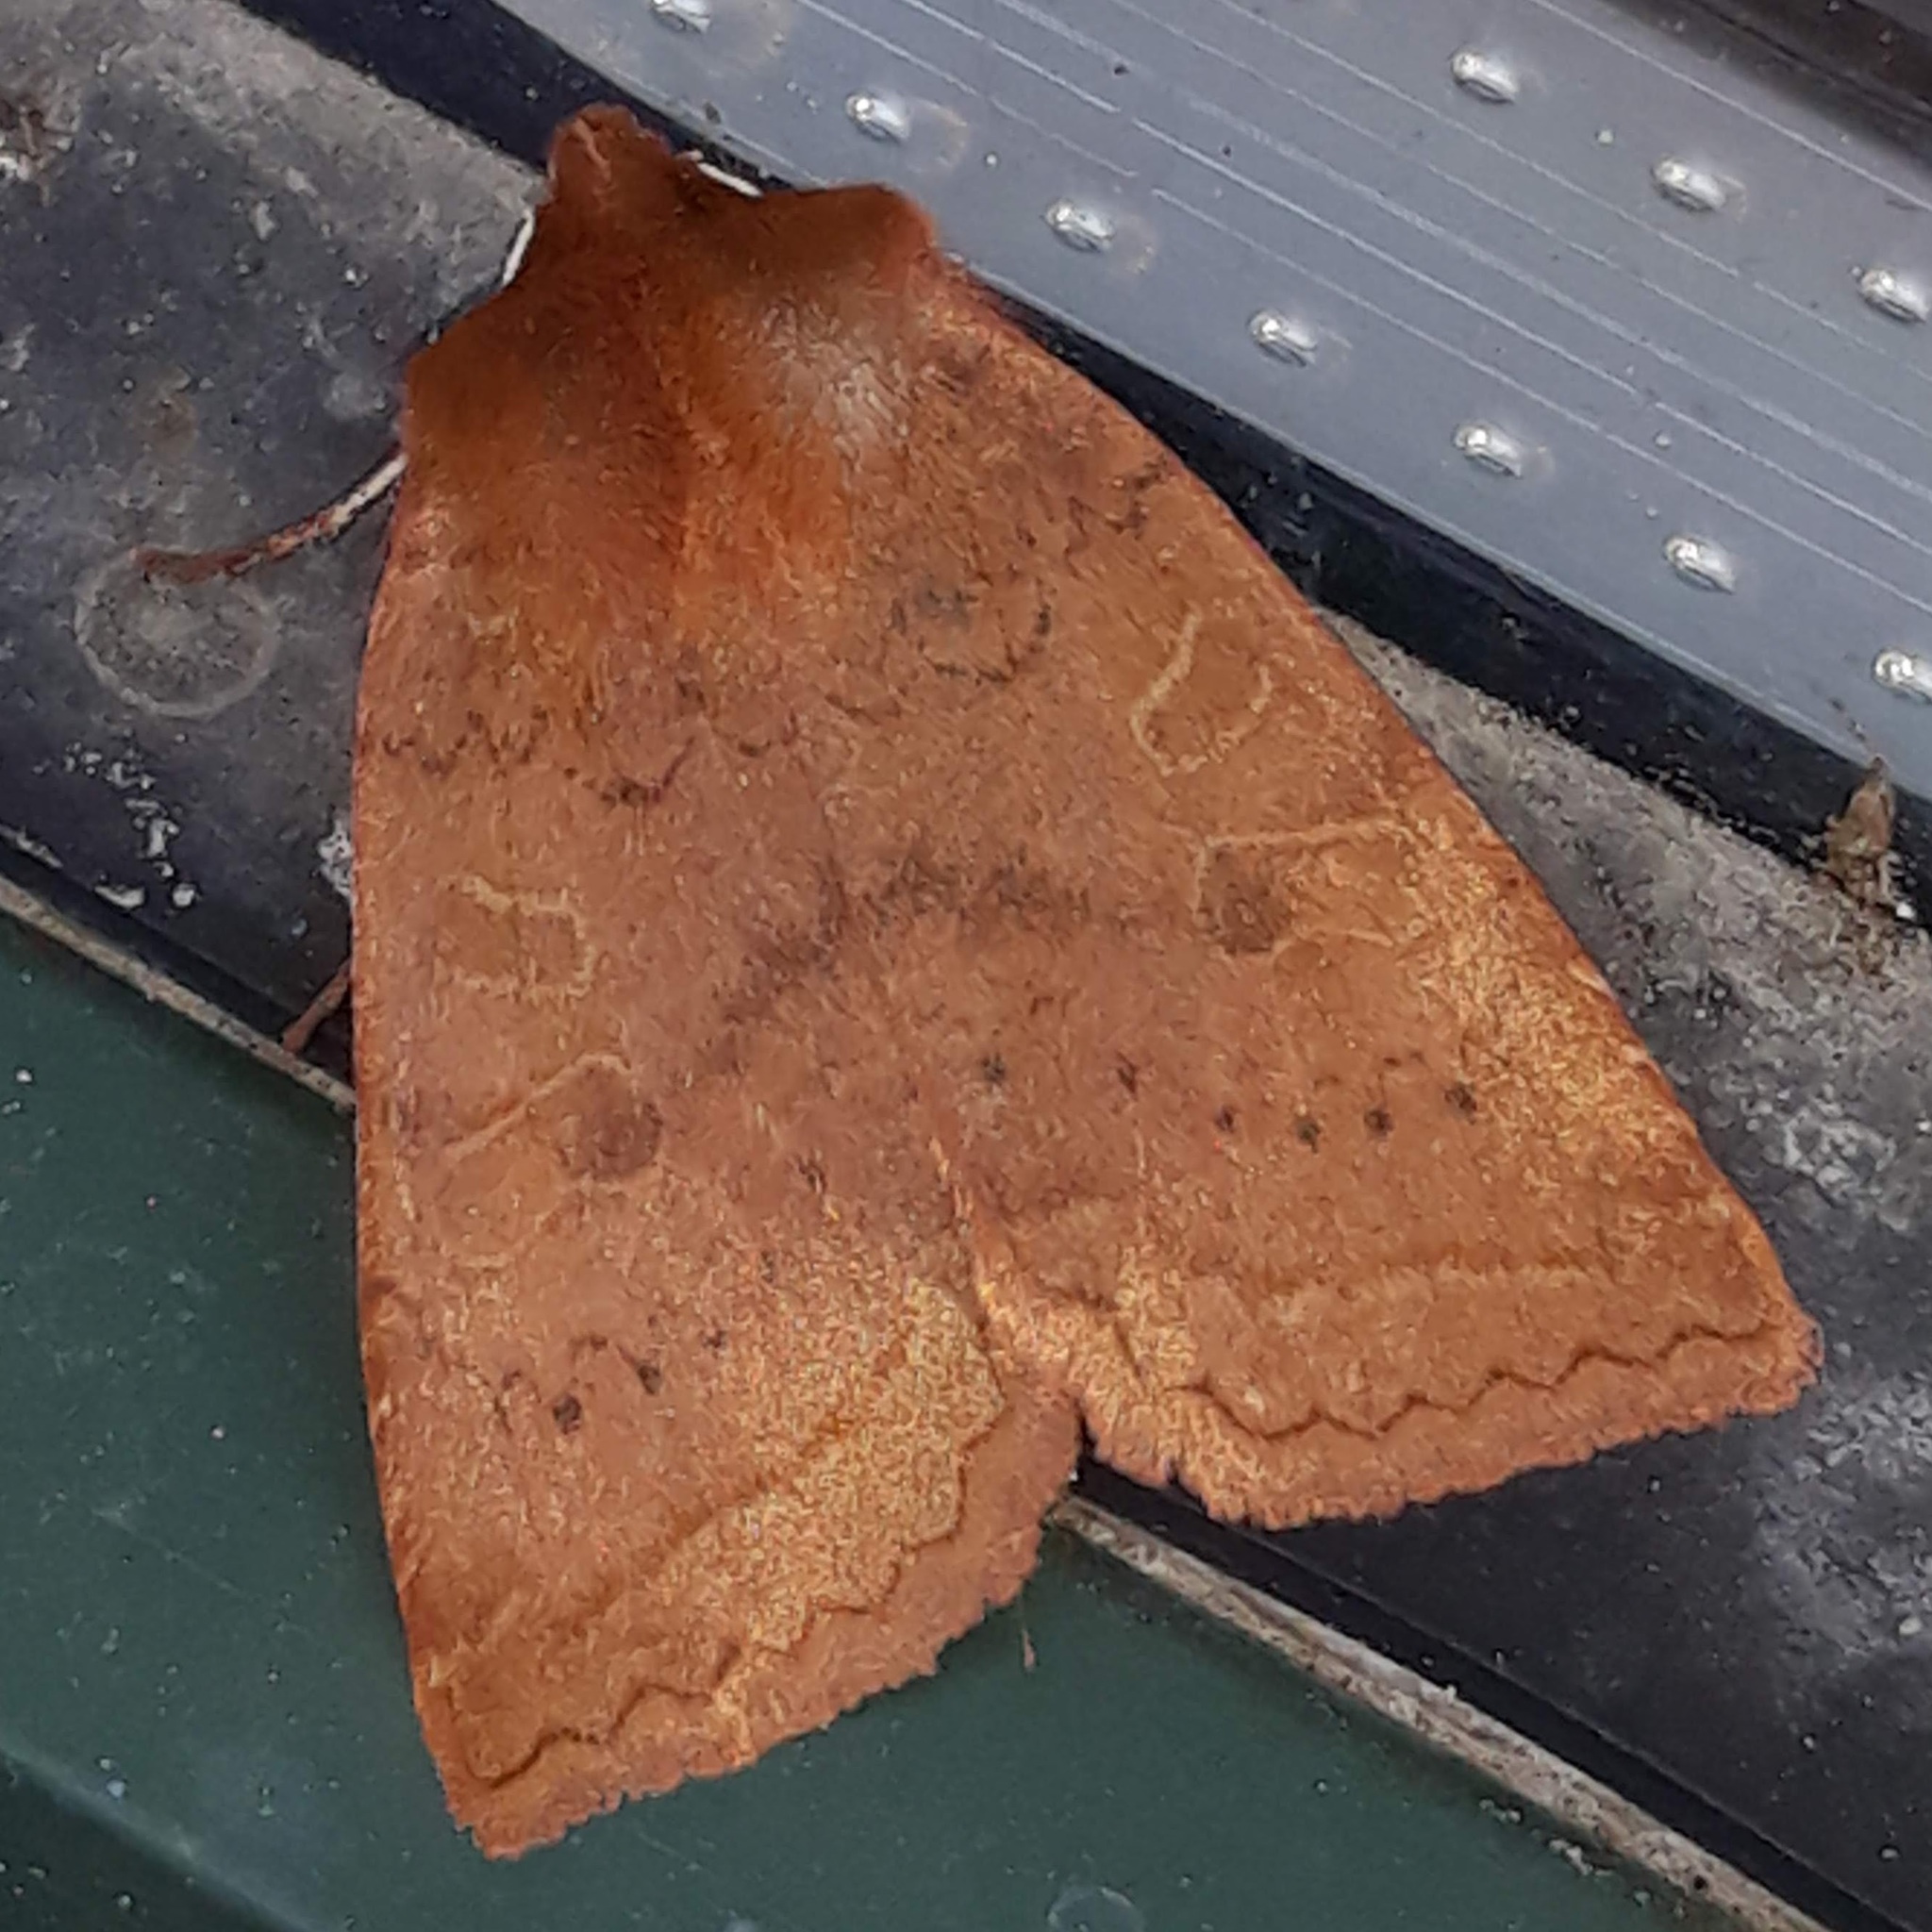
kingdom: Animalia
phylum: Arthropoda
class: Insecta
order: Lepidoptera
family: Noctuidae
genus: Epiglaea
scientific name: Epiglaea decliva
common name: Sloping sallow
